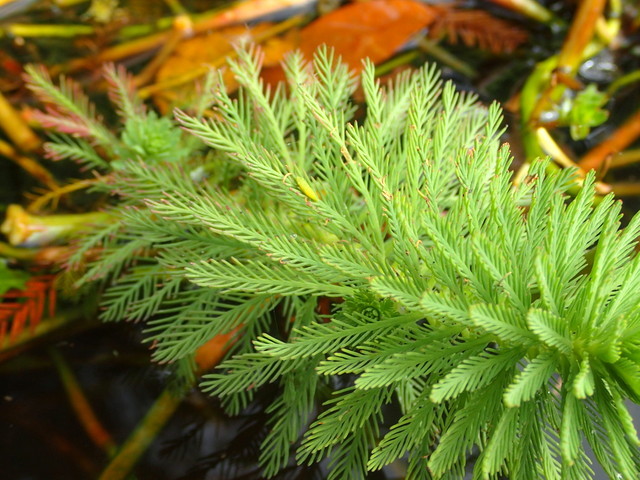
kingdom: Plantae
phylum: Tracheophyta
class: Magnoliopsida
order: Saxifragales
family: Haloragaceae
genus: Myriophyllum
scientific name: Myriophyllum aquaticum
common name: Parrot's feather
